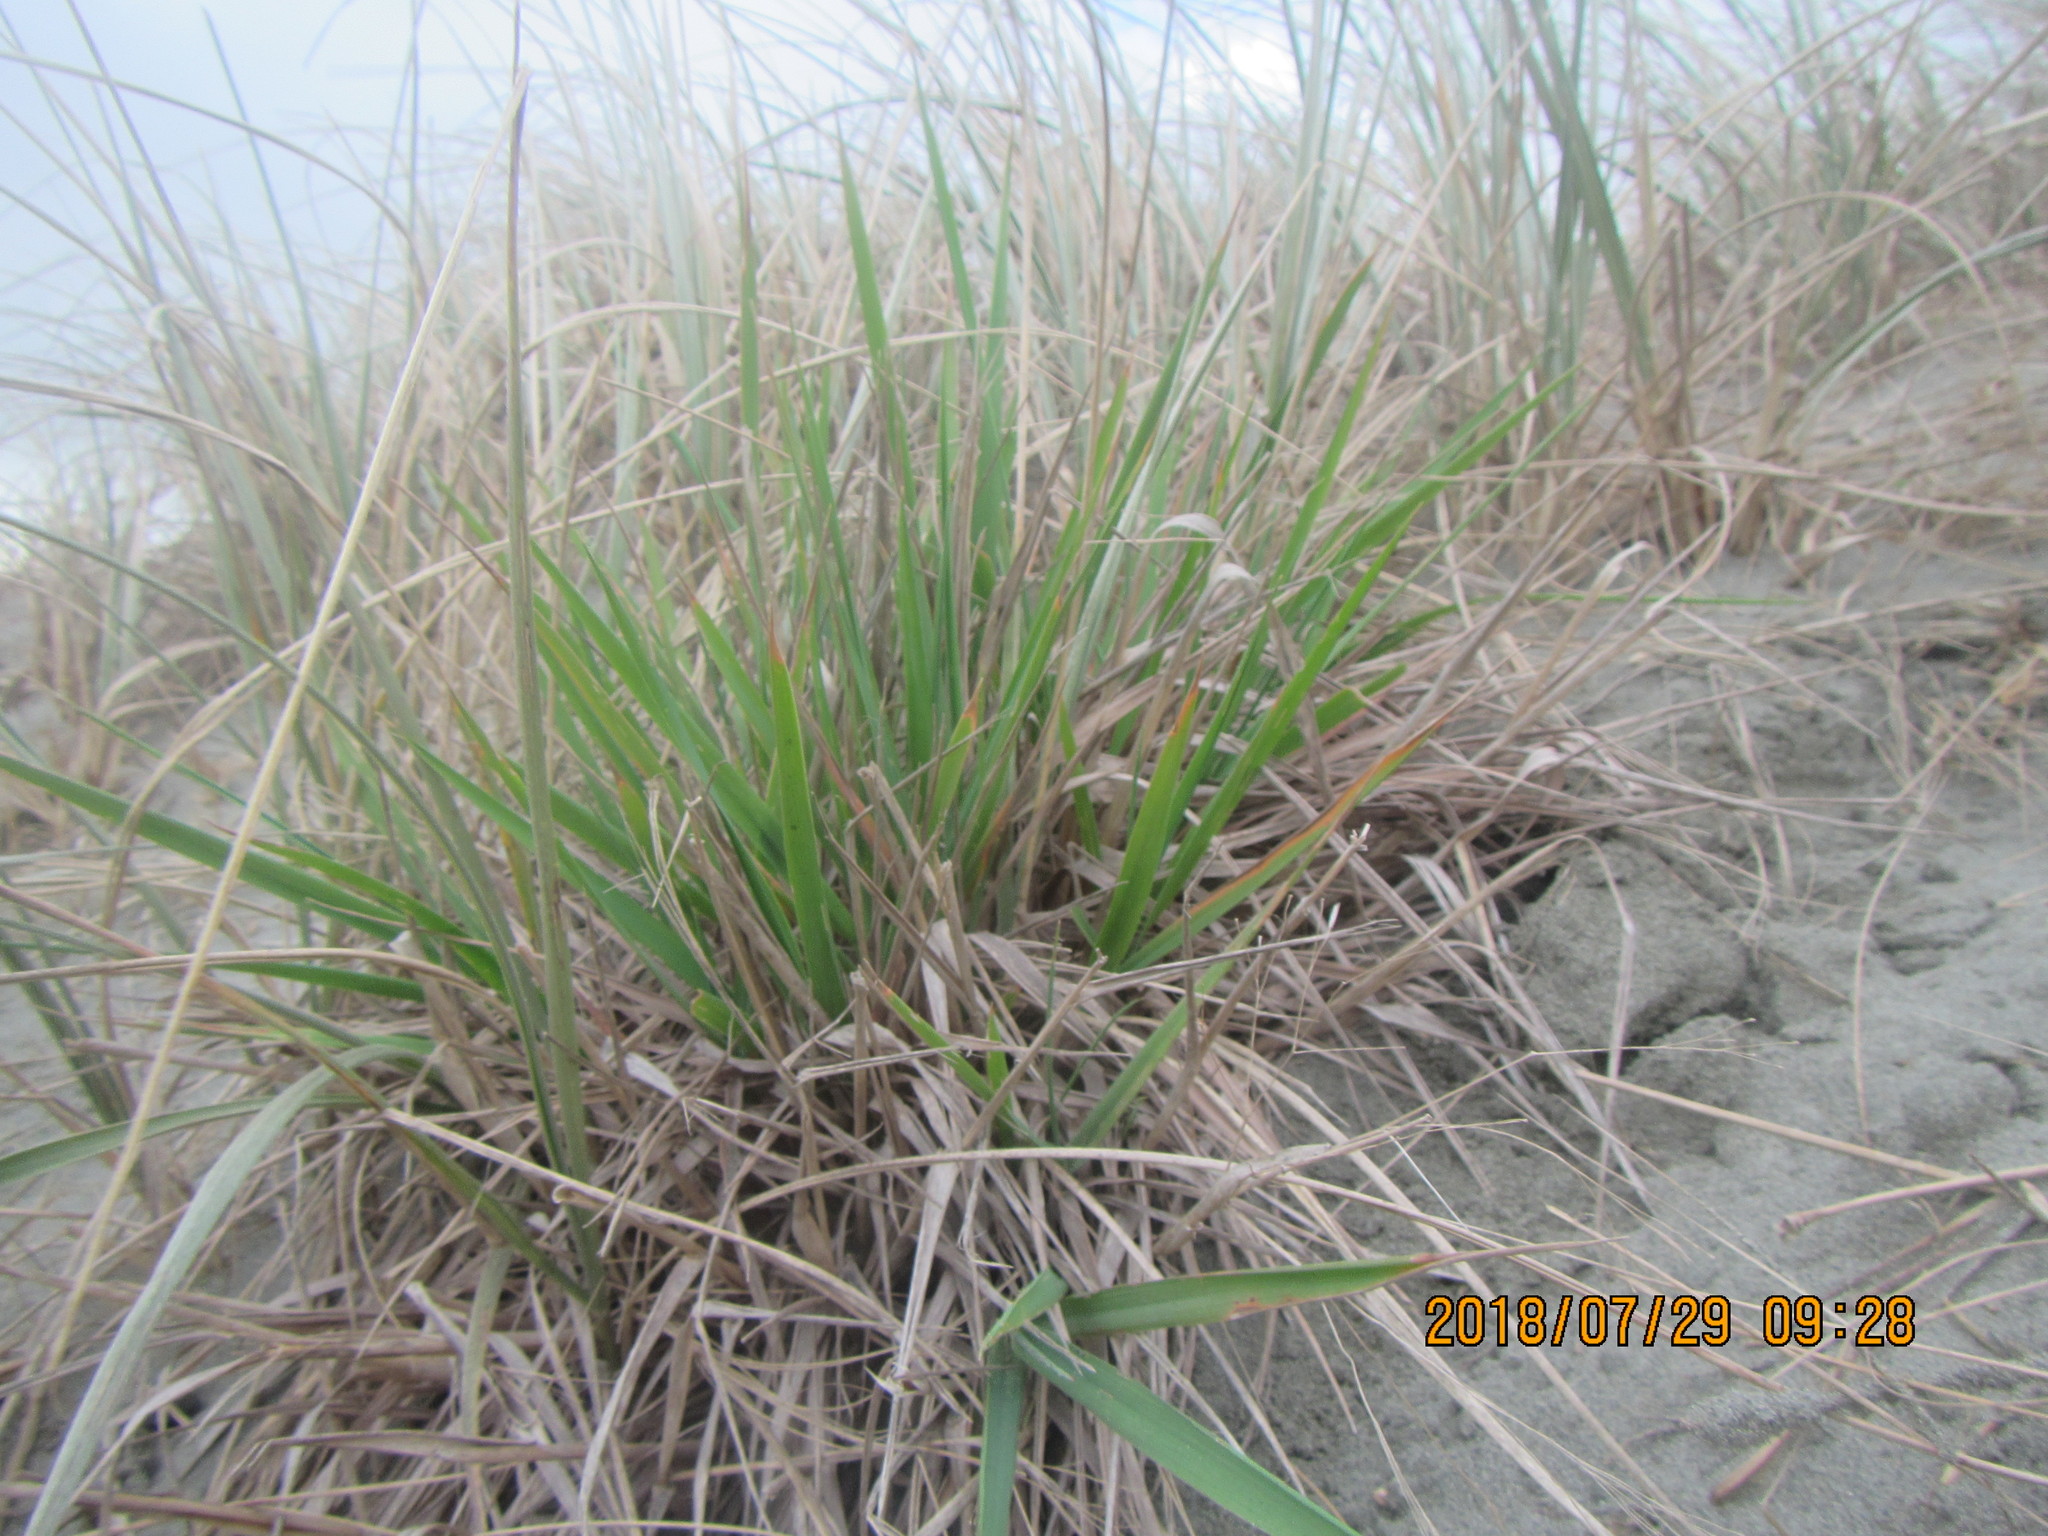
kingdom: Plantae
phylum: Tracheophyta
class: Liliopsida
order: Poales
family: Poaceae
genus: Lachnagrostis
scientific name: Lachnagrostis billardierei
